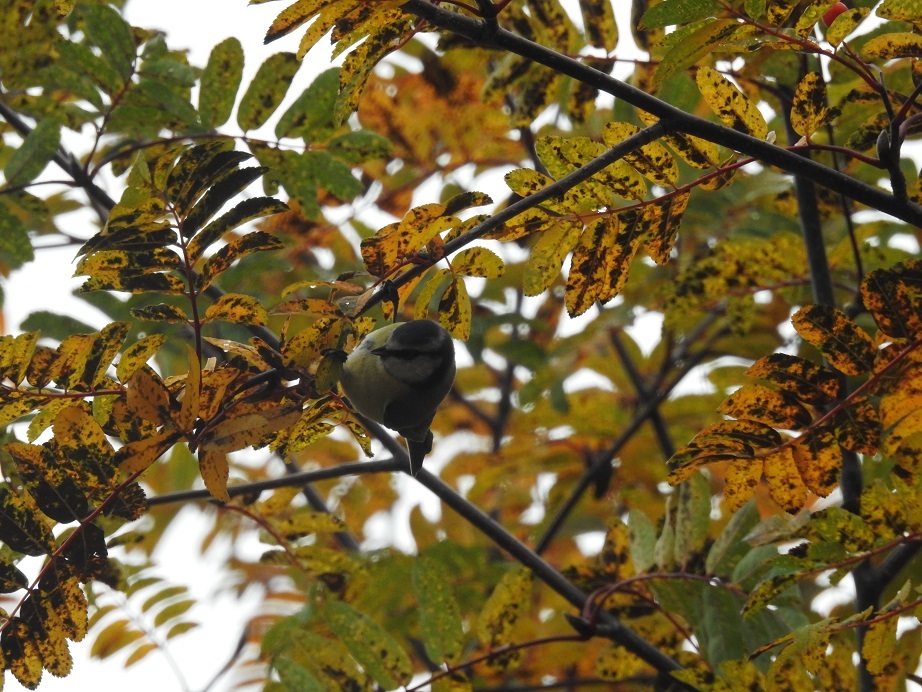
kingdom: Animalia
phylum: Chordata
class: Aves
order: Passeriformes
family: Paridae
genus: Cyanistes
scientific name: Cyanistes caeruleus
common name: Eurasian blue tit
